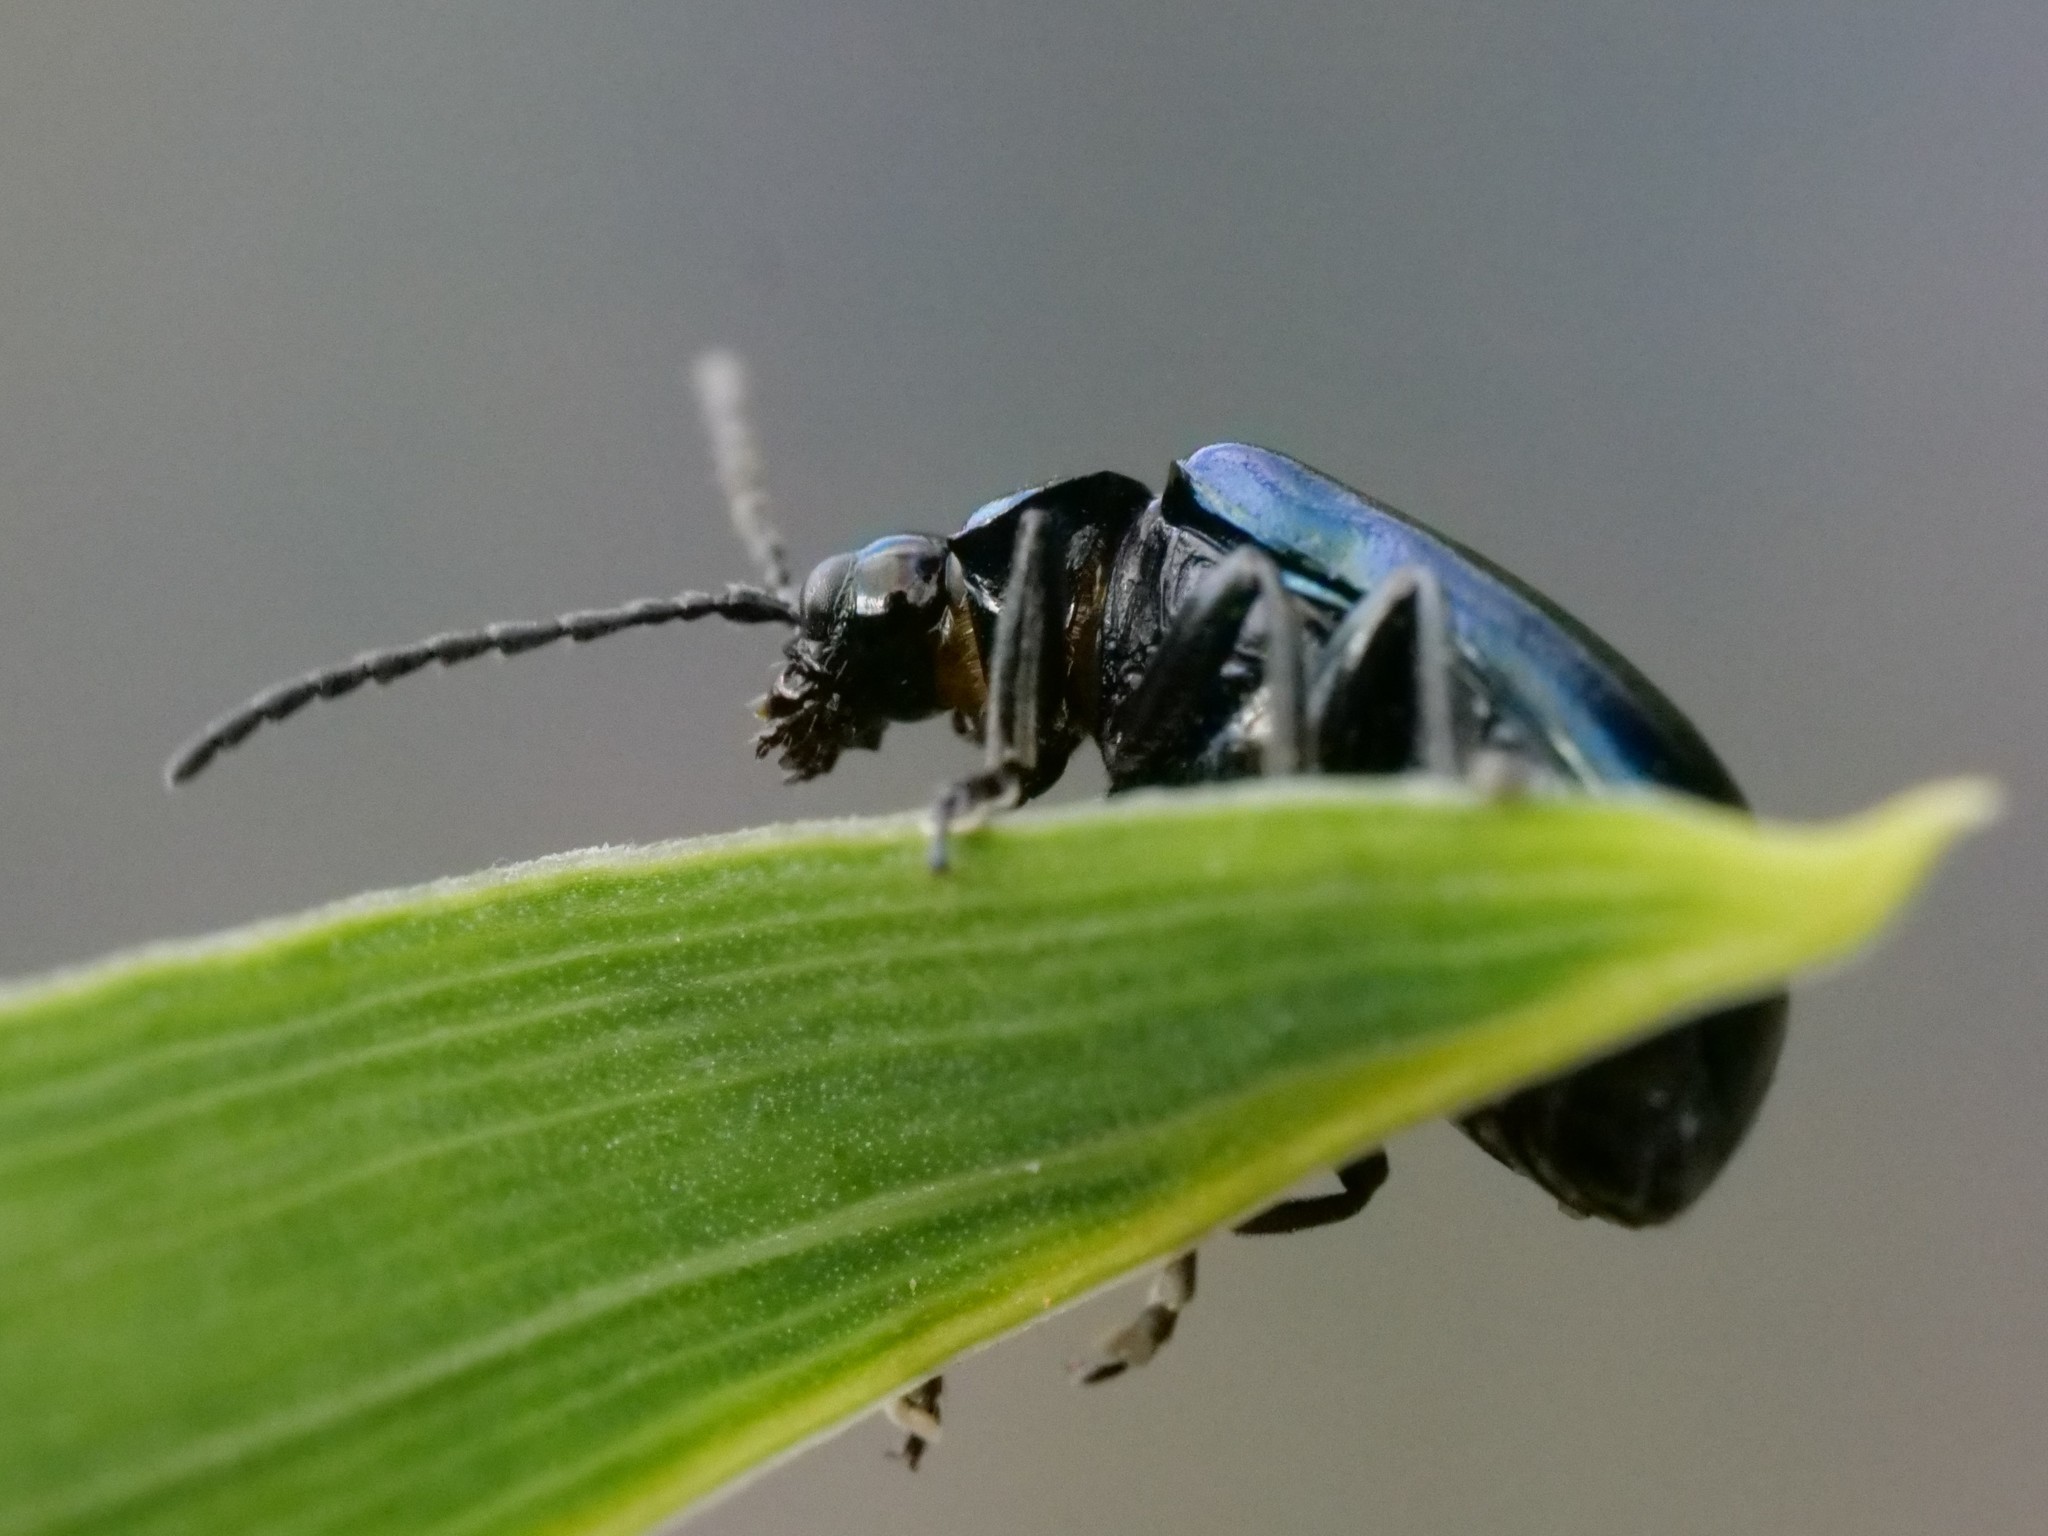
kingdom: Animalia
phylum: Arthropoda
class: Insecta
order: Coleoptera
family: Chrysomelidae
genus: Agelastica
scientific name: Agelastica alni
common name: Alder leaf beetle
